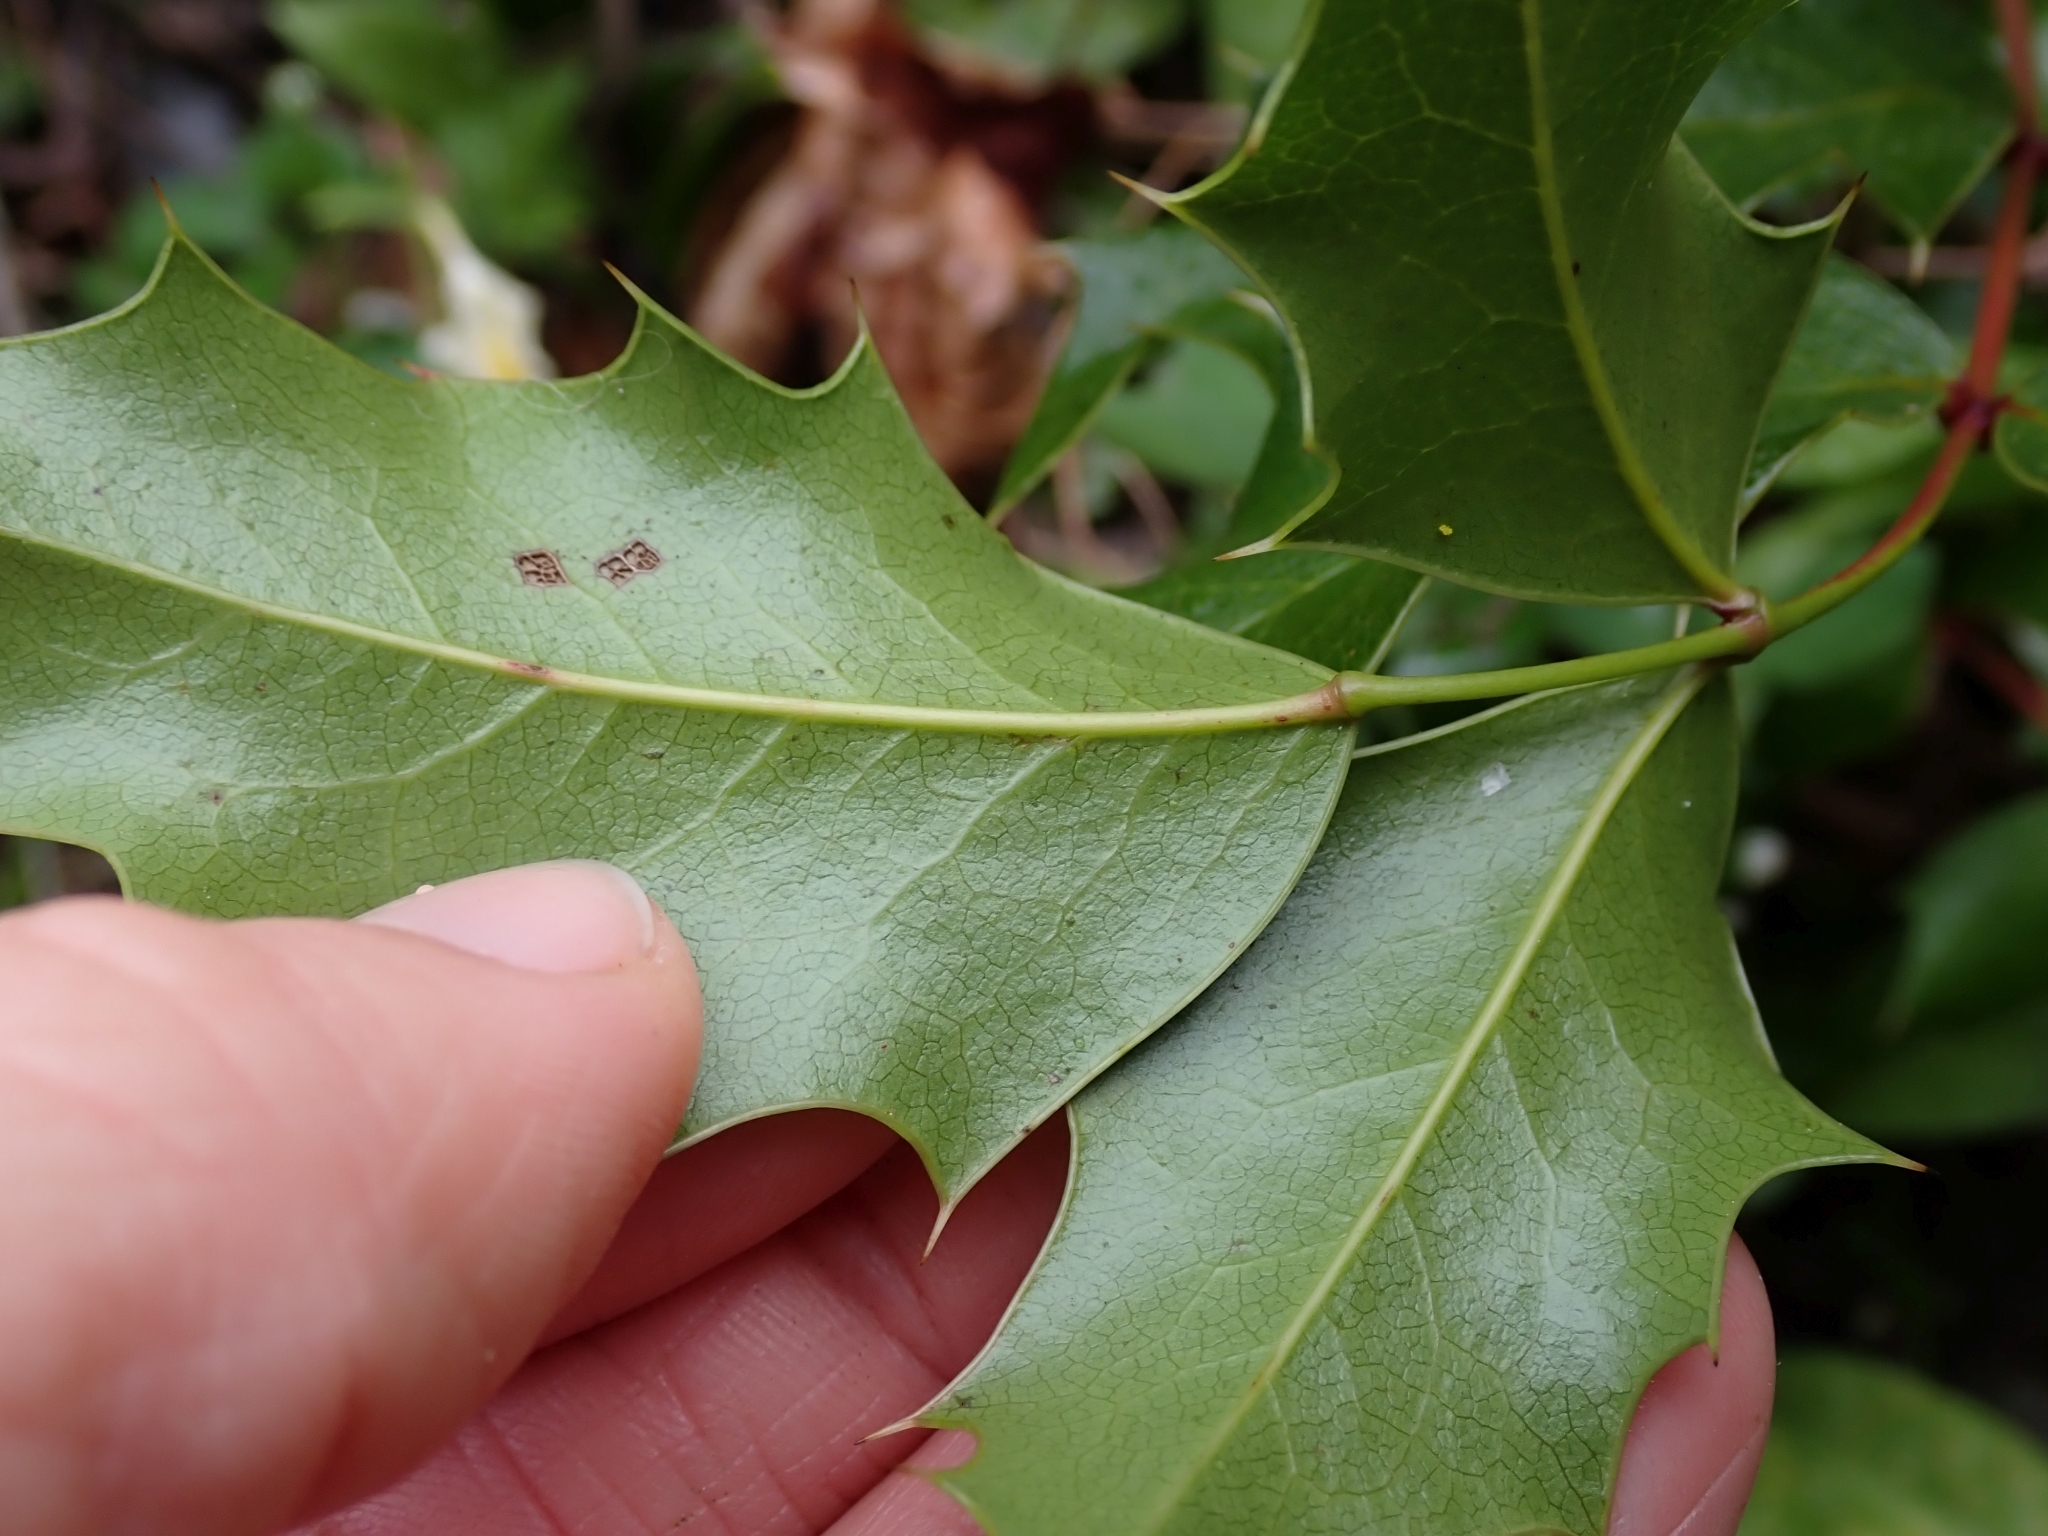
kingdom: Plantae
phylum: Tracheophyta
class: Magnoliopsida
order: Ranunculales
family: Berberidaceae
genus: Mahonia
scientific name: Mahonia aquifolium
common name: Oregon-grape
